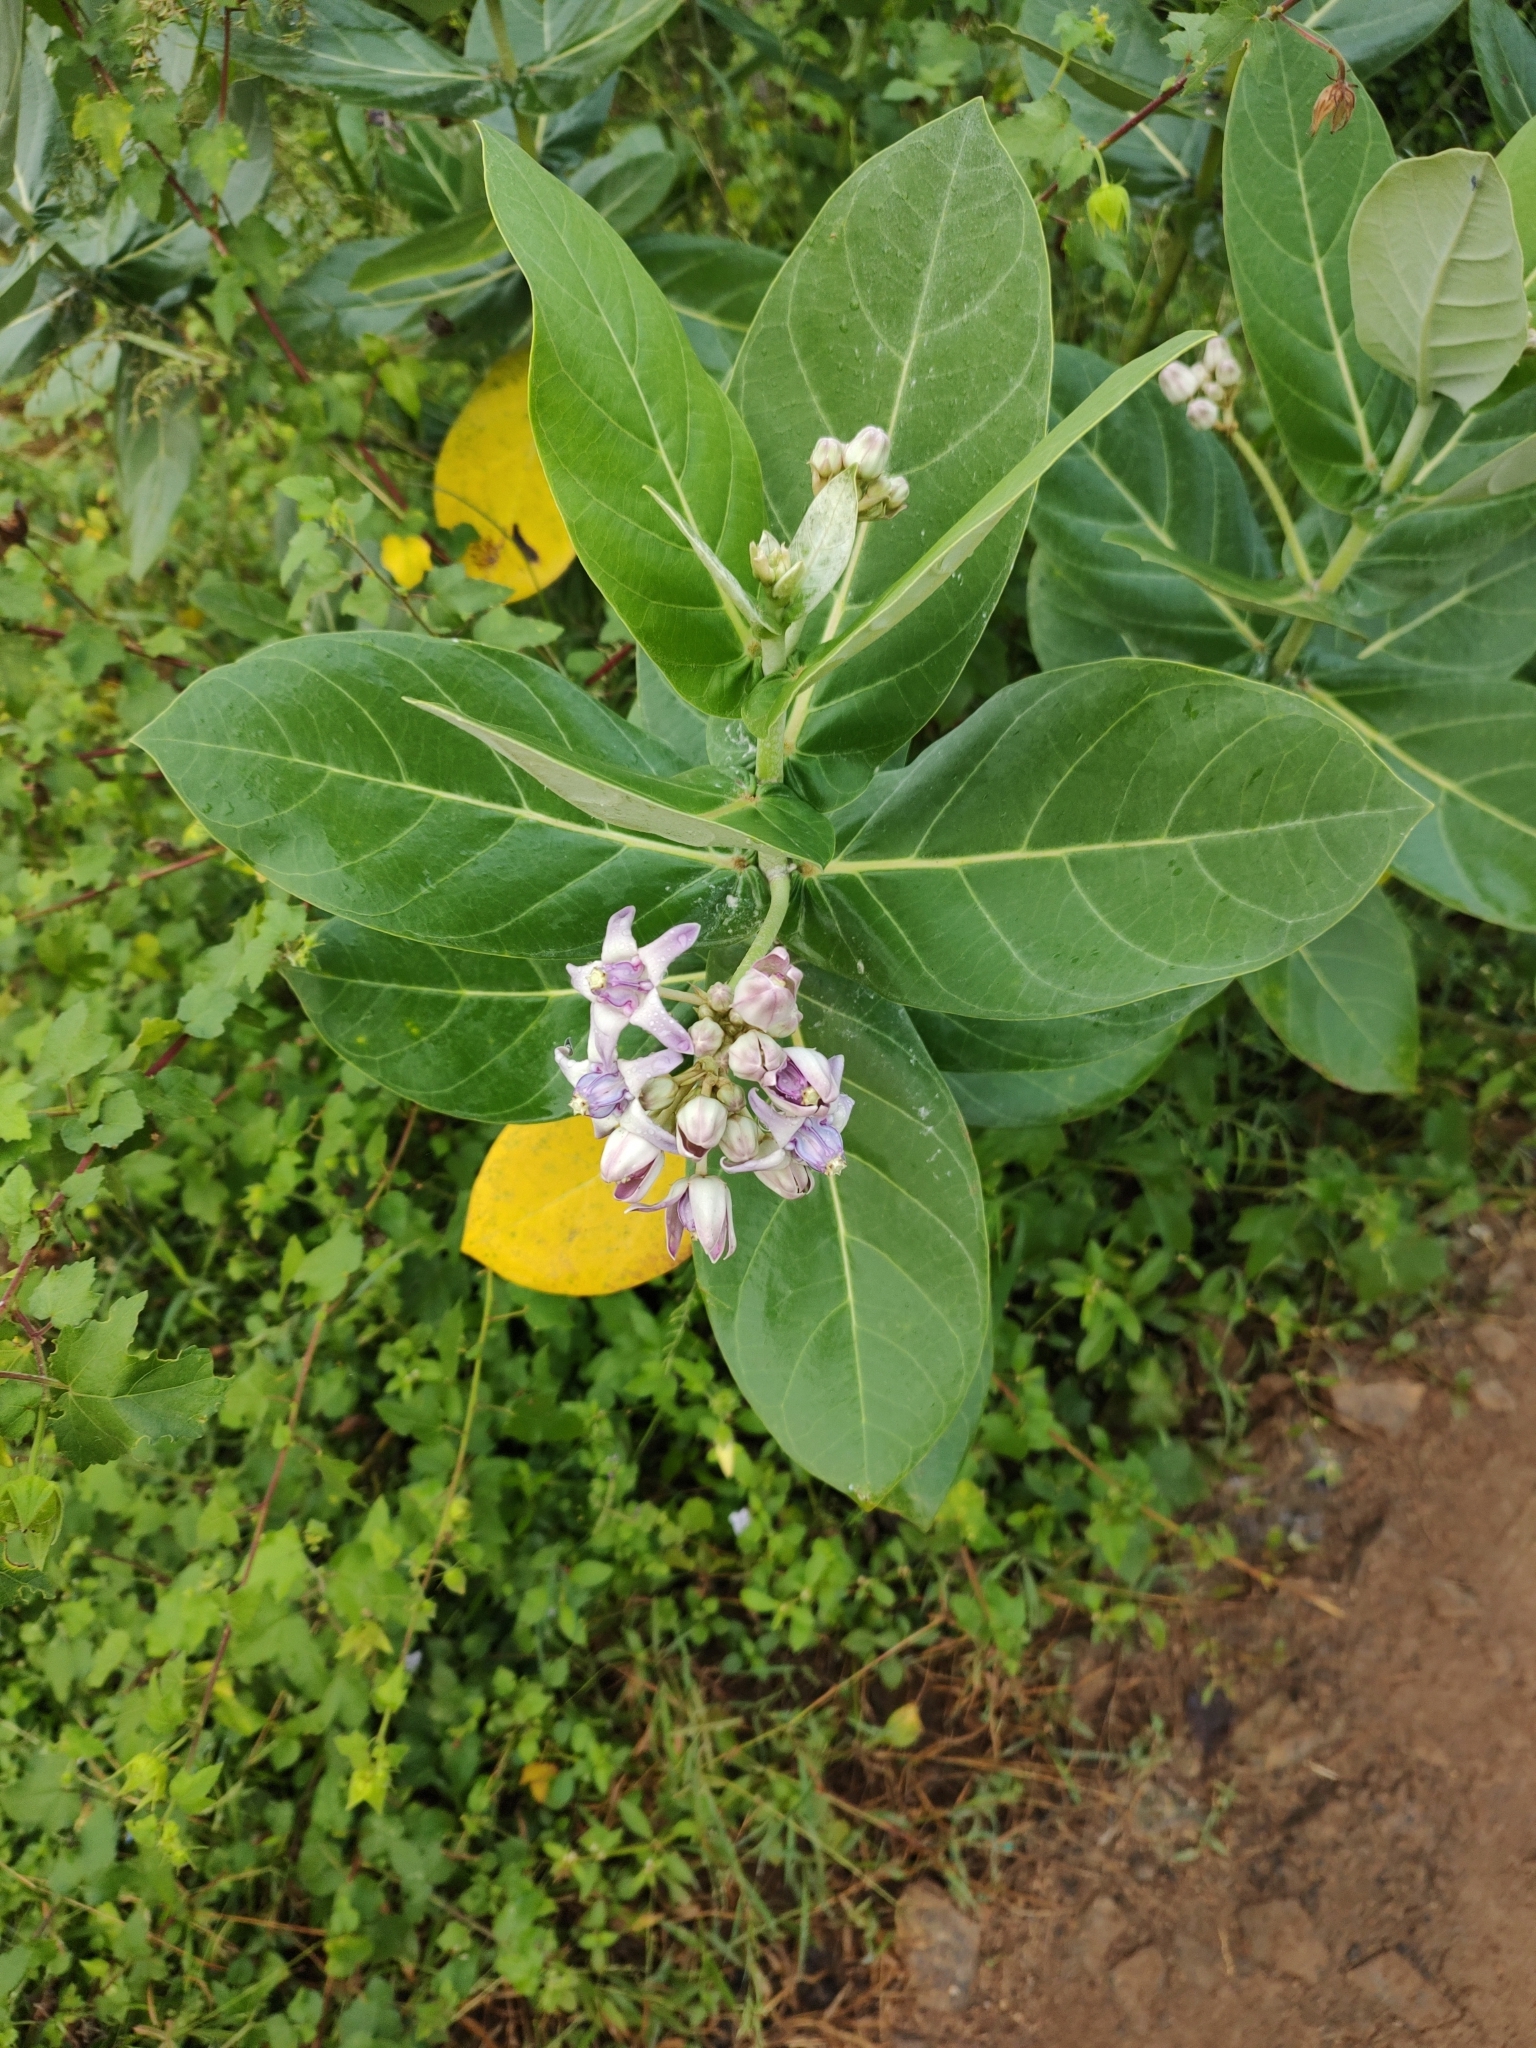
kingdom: Plantae
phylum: Tracheophyta
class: Magnoliopsida
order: Gentianales
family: Apocynaceae
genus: Calotropis
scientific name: Calotropis gigantea
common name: Crown flower
